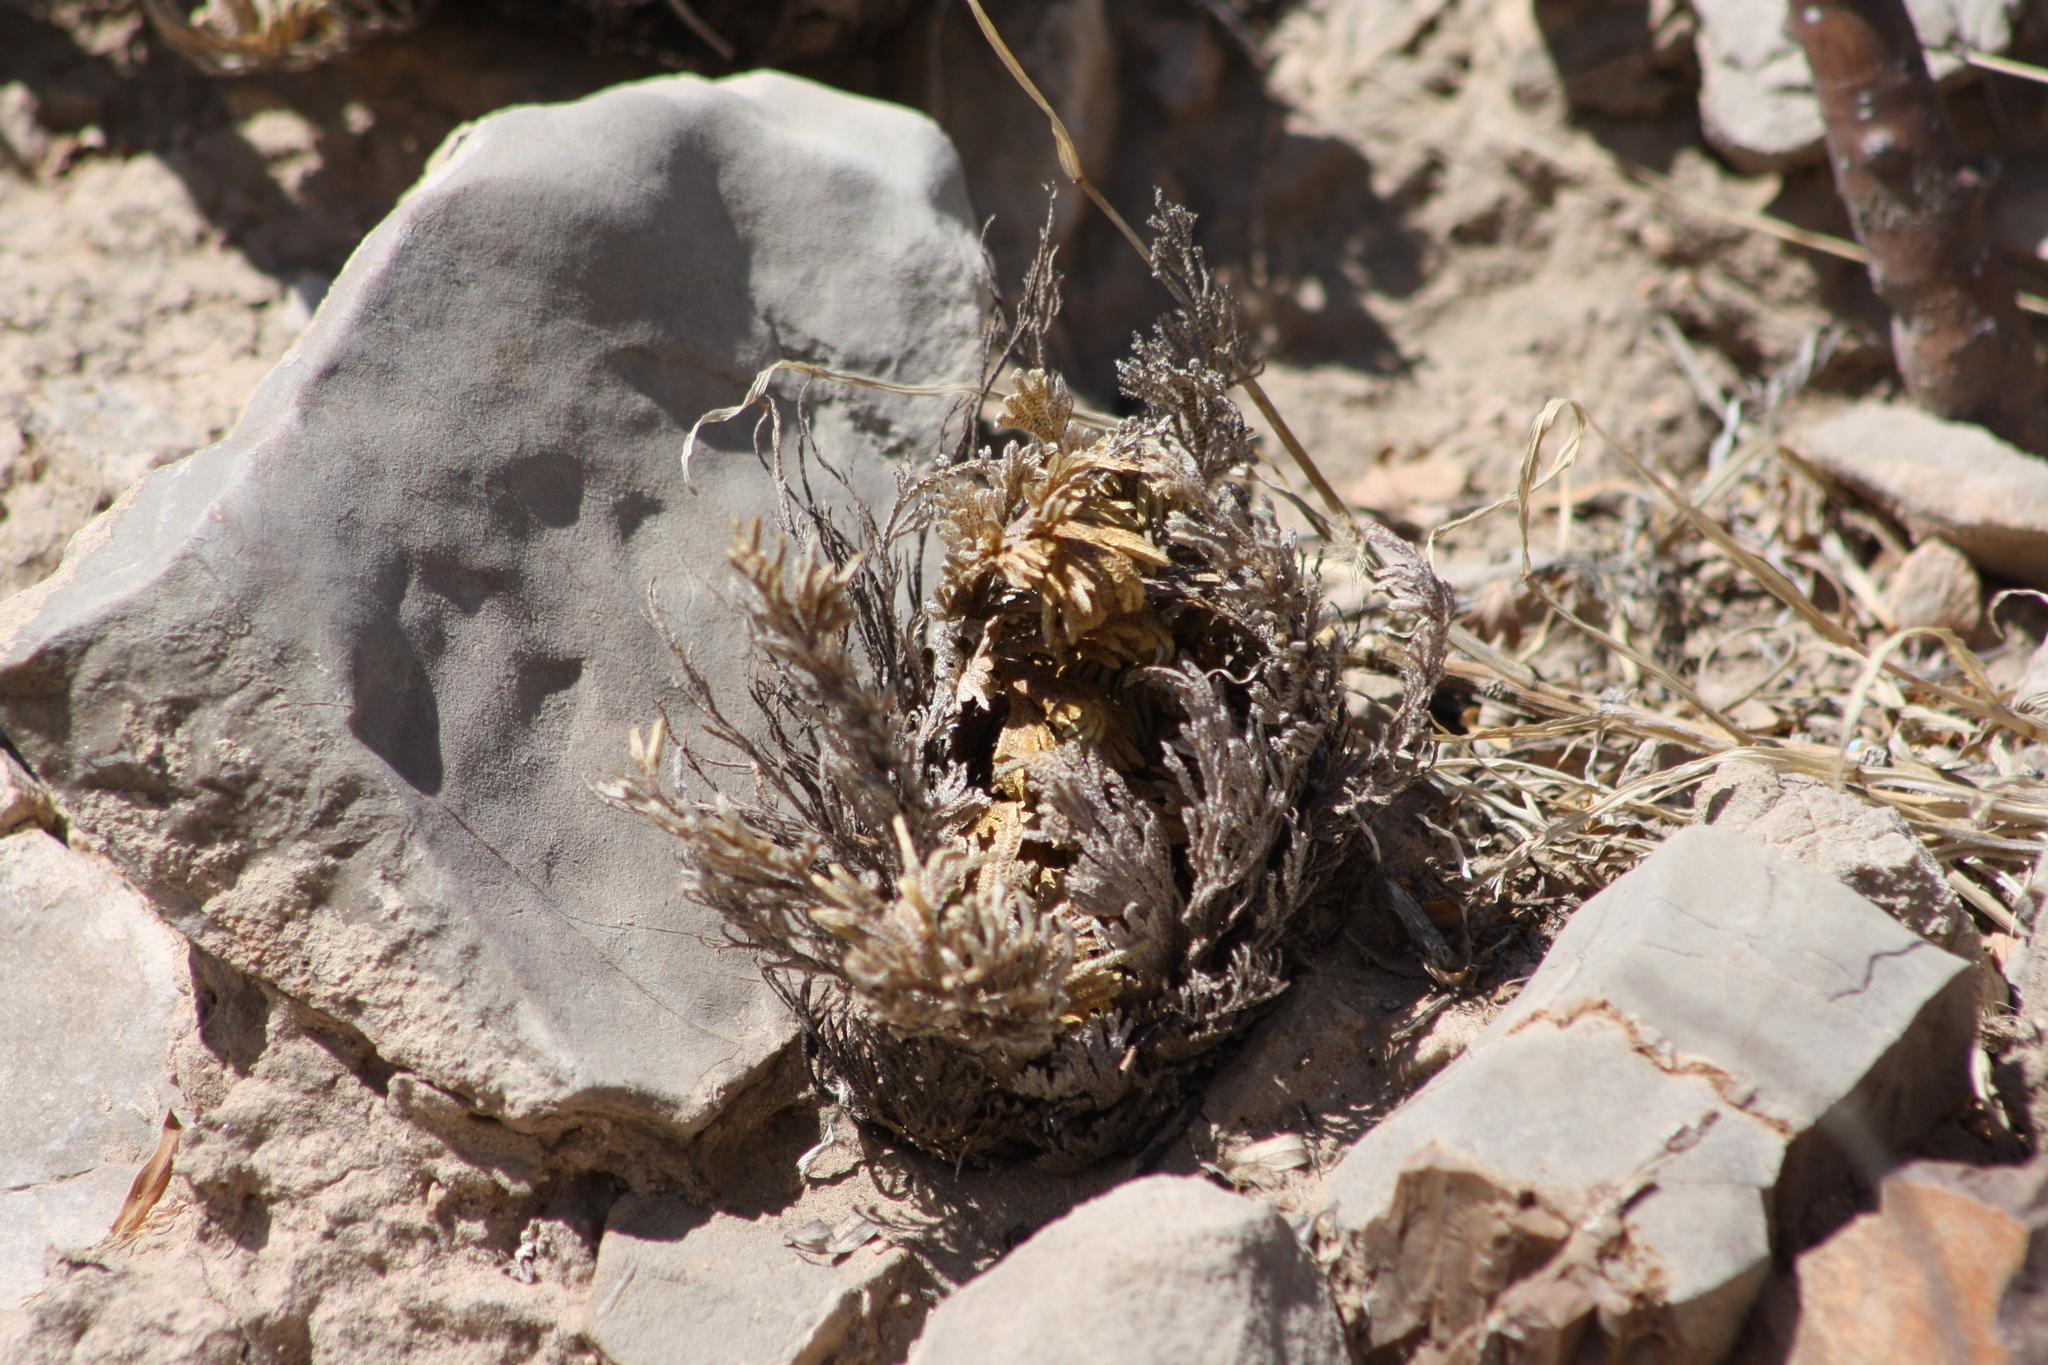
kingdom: Plantae
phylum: Tracheophyta
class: Lycopodiopsida
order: Selaginellales
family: Selaginellaceae
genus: Selaginella
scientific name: Selaginella lepidophylla
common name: Rose-of-jericho
